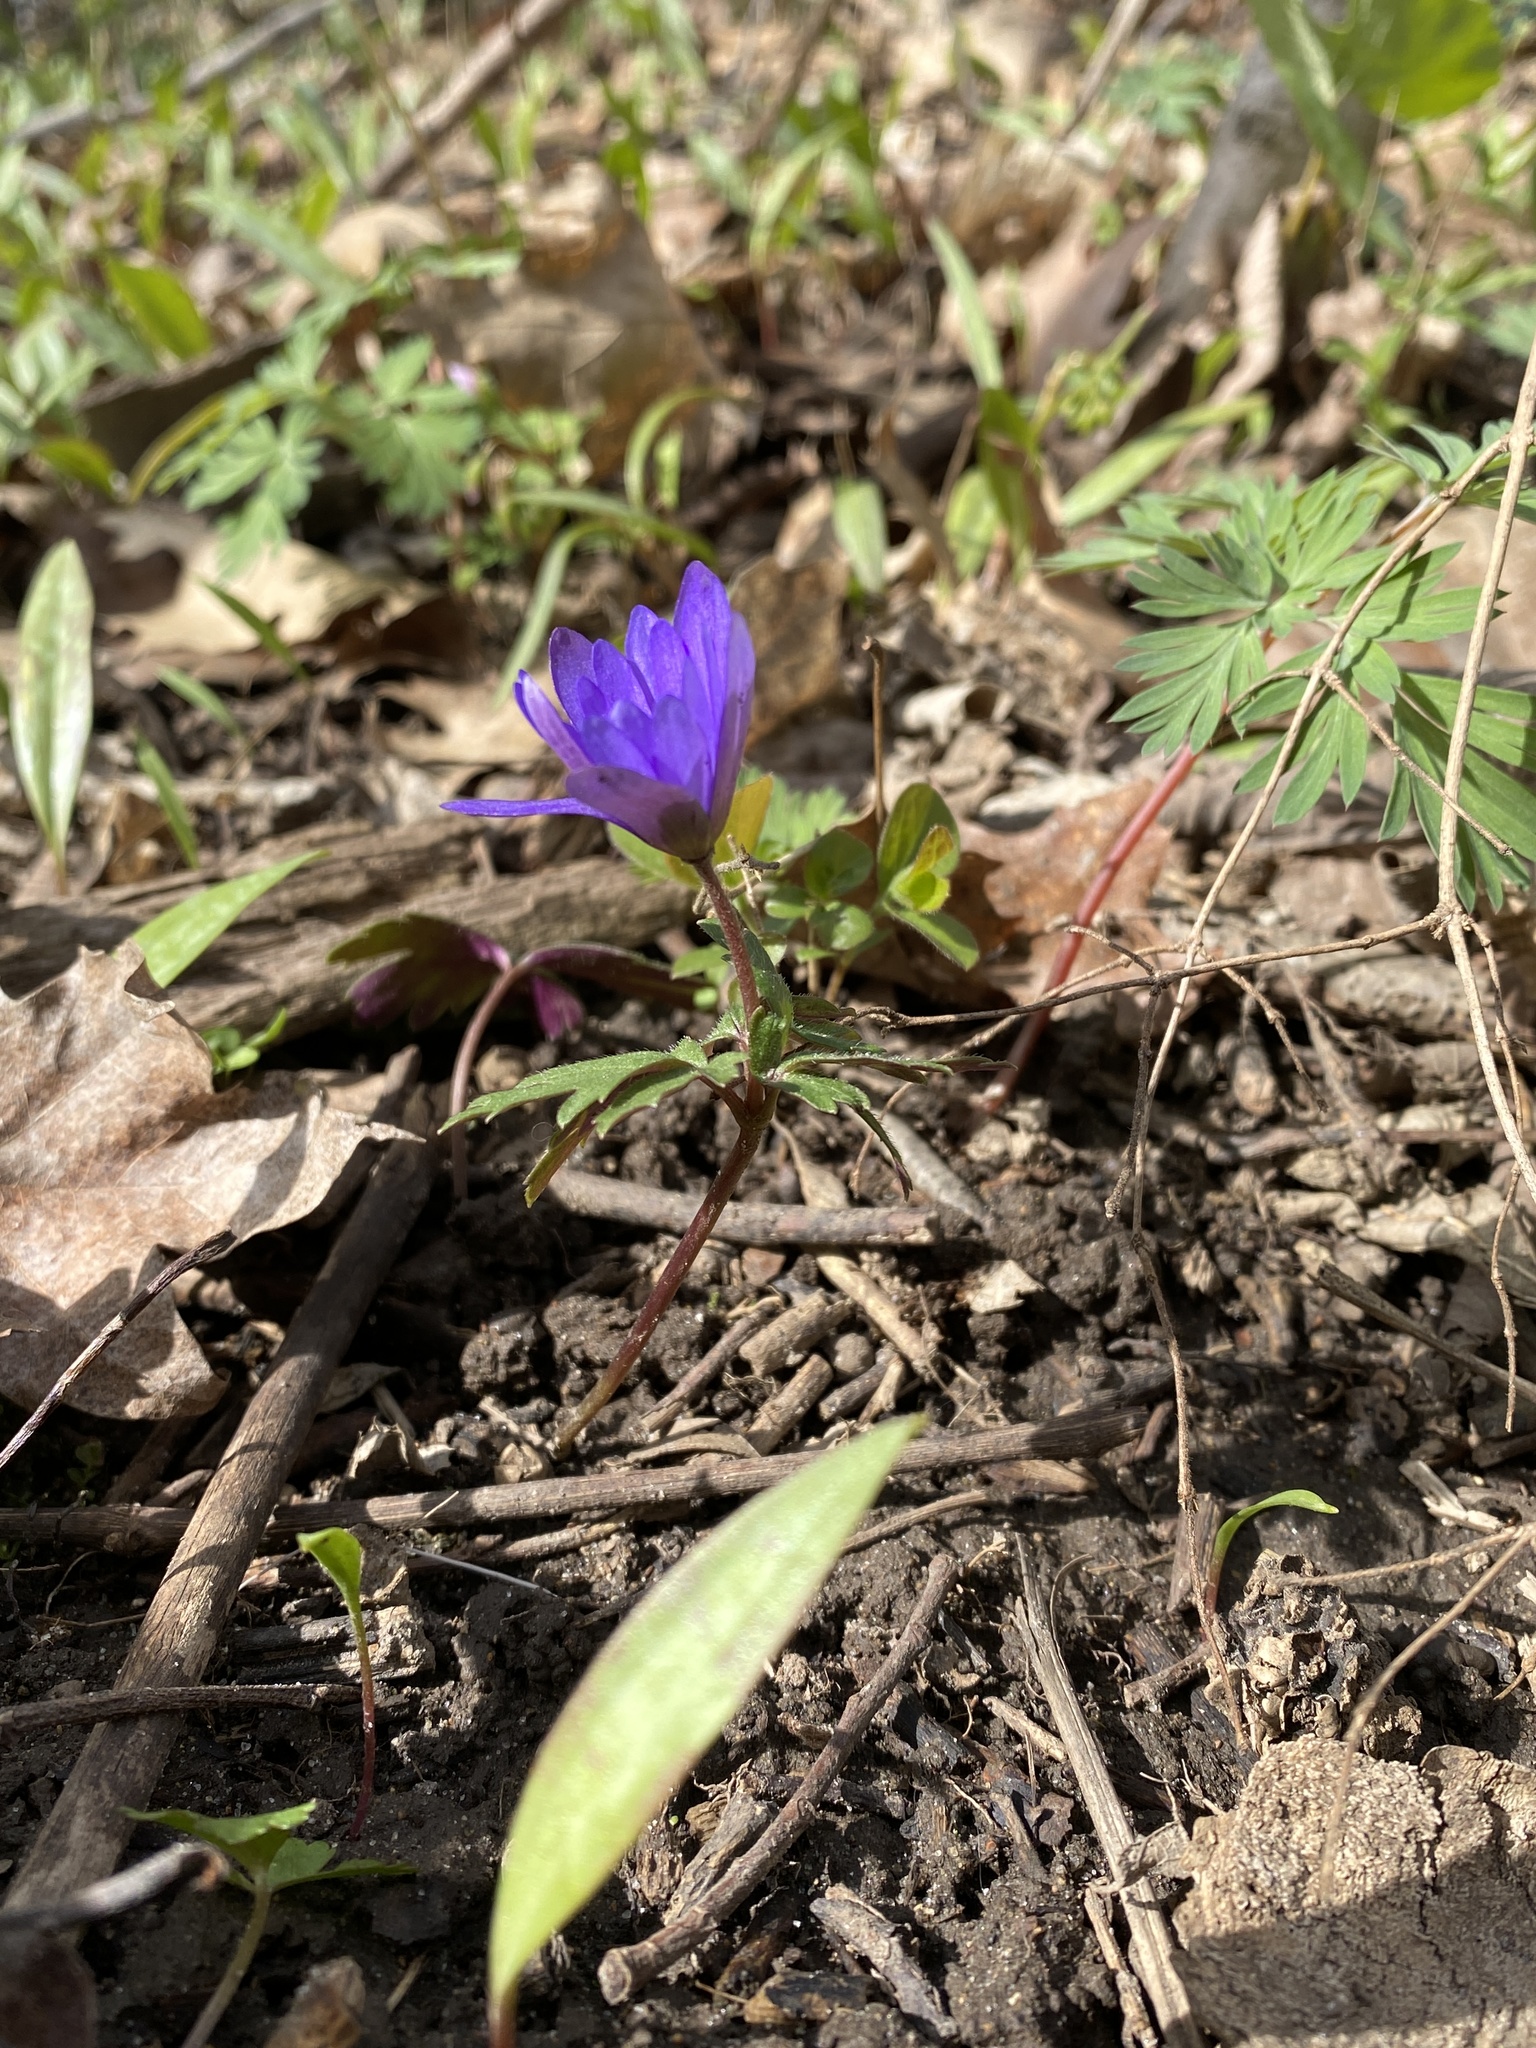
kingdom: Plantae
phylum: Tracheophyta
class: Magnoliopsida
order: Ranunculales
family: Ranunculaceae
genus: Anemone
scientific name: Anemone blanda
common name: Balkan anemone
